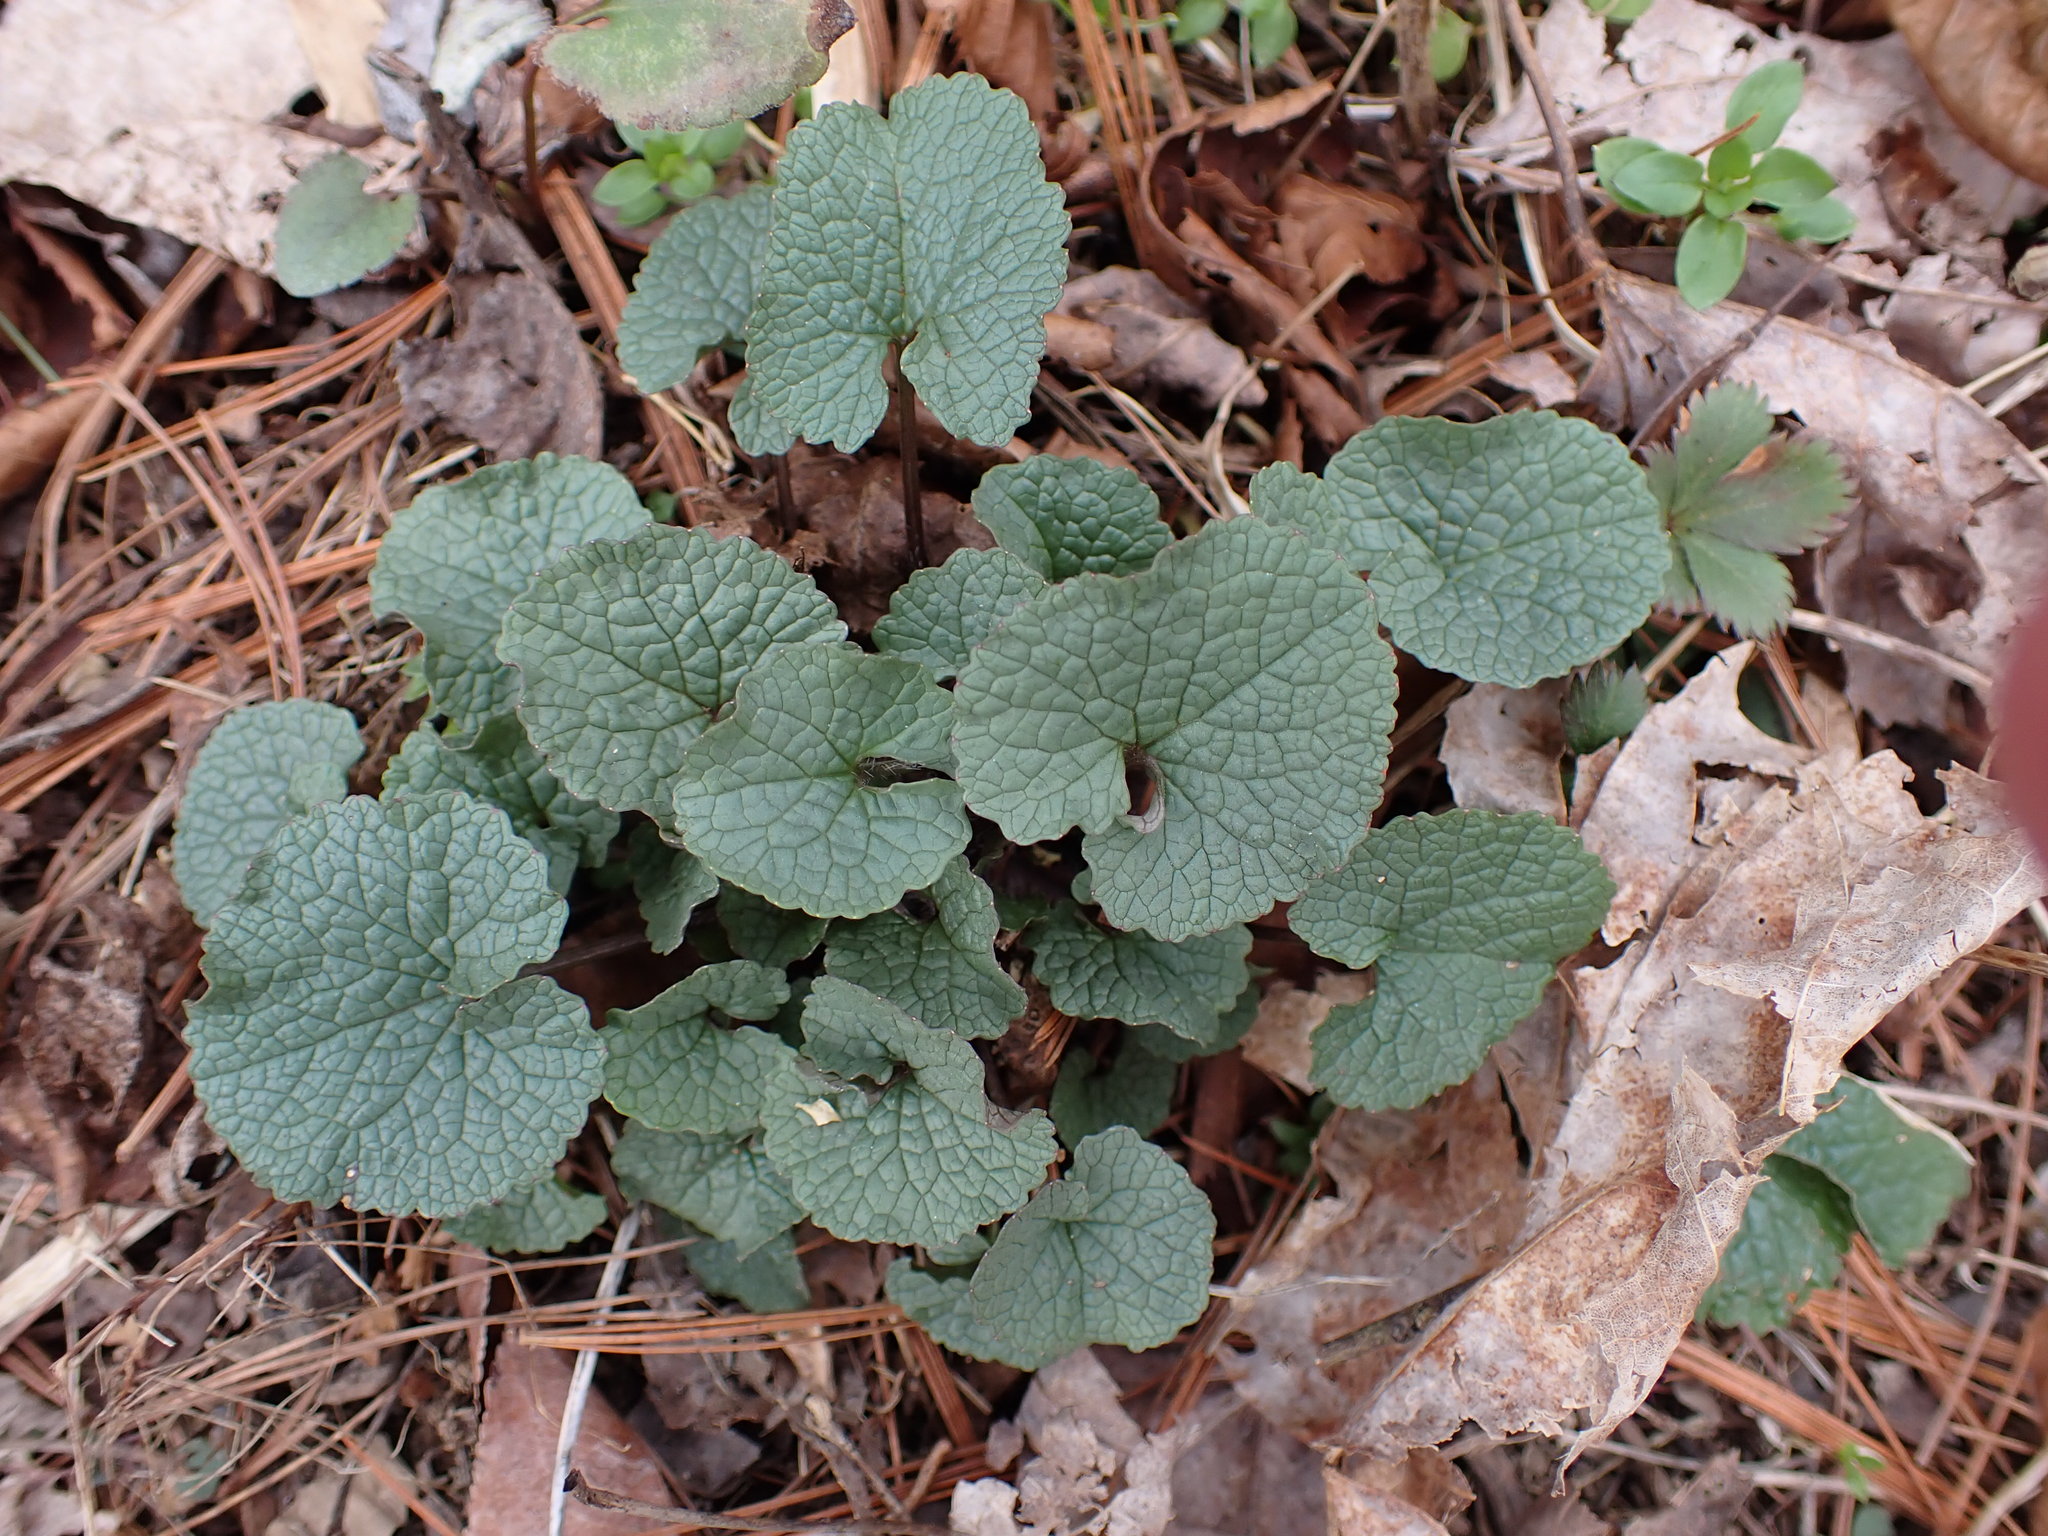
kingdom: Plantae
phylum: Tracheophyta
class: Magnoliopsida
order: Brassicales
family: Brassicaceae
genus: Alliaria
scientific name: Alliaria petiolata
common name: Garlic mustard
